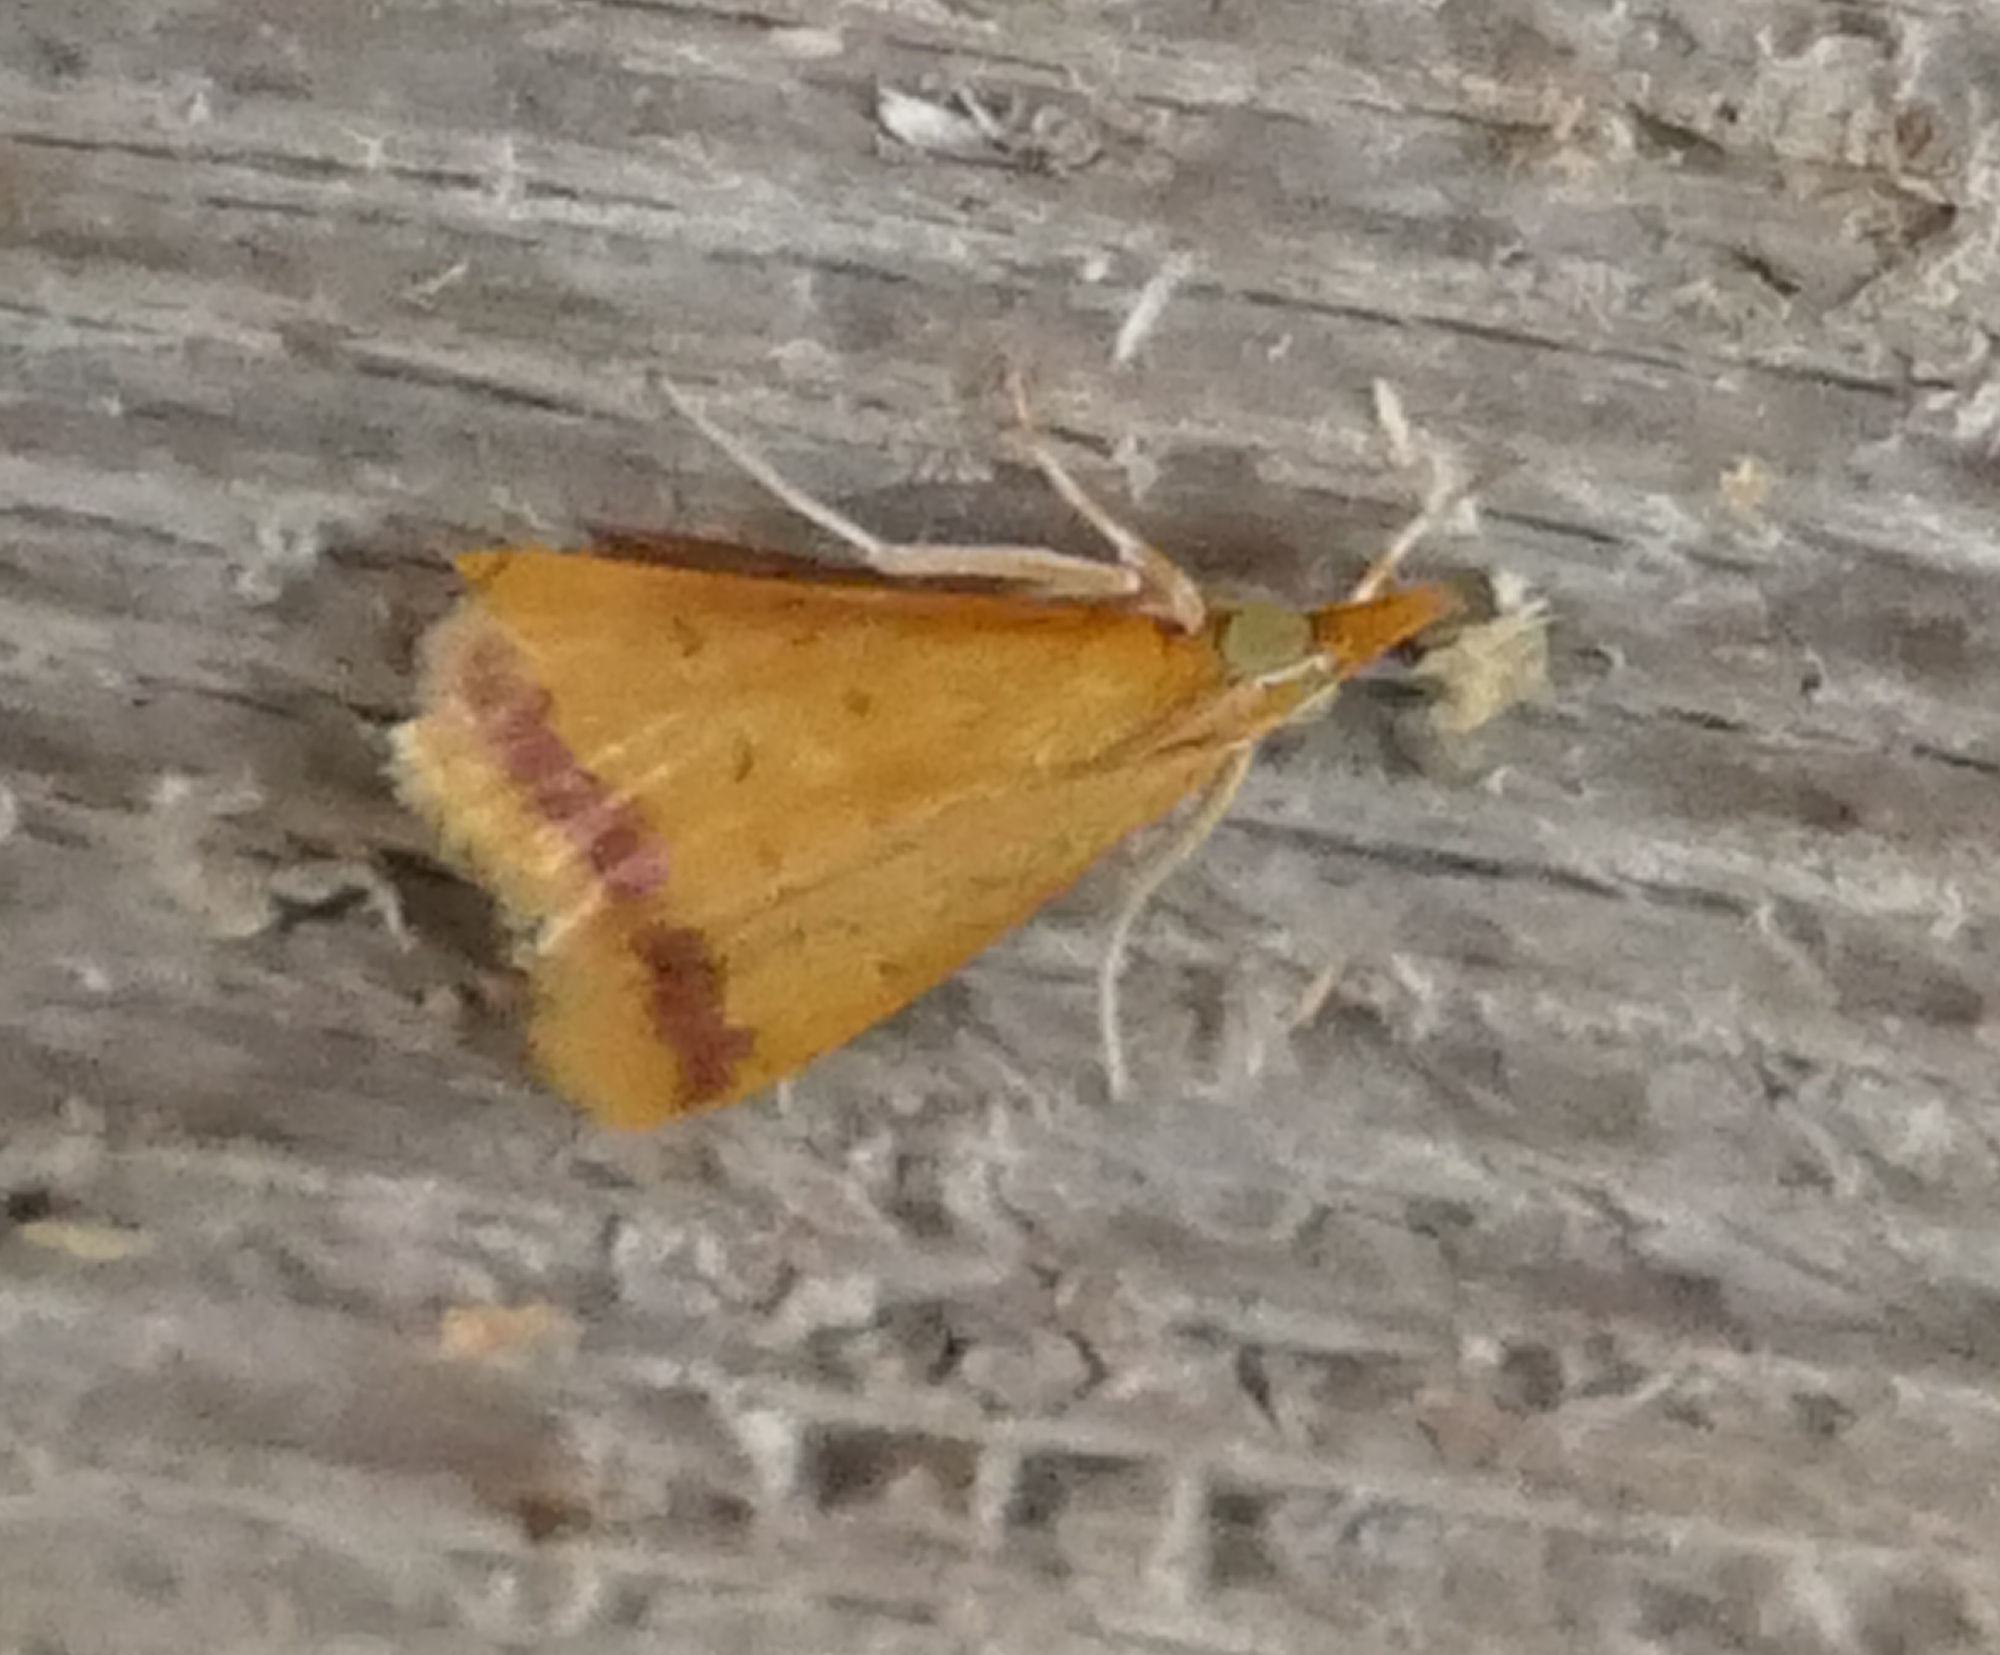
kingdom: Animalia
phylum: Arthropoda
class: Insecta
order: Lepidoptera
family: Crambidae
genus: Hyalorista
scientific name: Hyalorista taeniolalis
